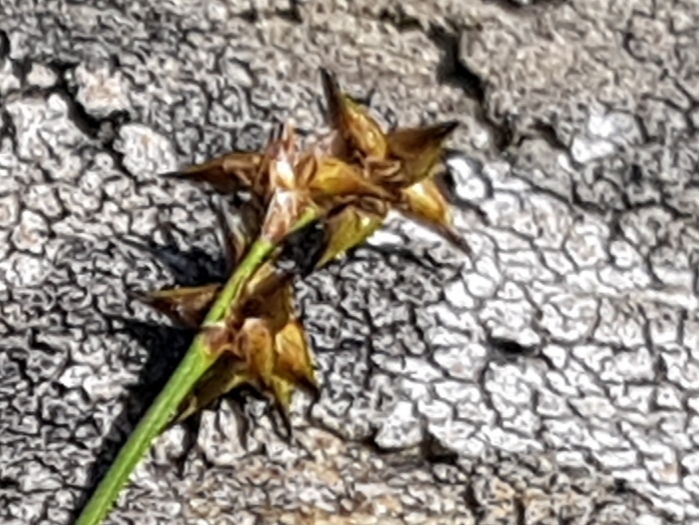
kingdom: Plantae
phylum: Tracheophyta
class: Liliopsida
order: Poales
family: Cyperaceae
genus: Carex
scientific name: Carex echinata
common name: Star sedge
